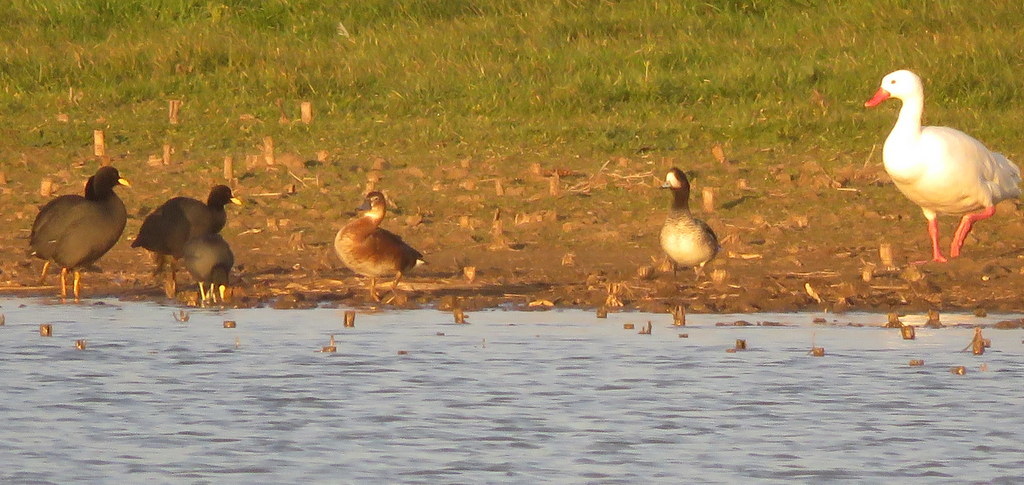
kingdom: Animalia
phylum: Chordata
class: Aves
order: Anseriformes
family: Anatidae
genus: Netta
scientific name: Netta peposaca
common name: Rosy-billed pochard
